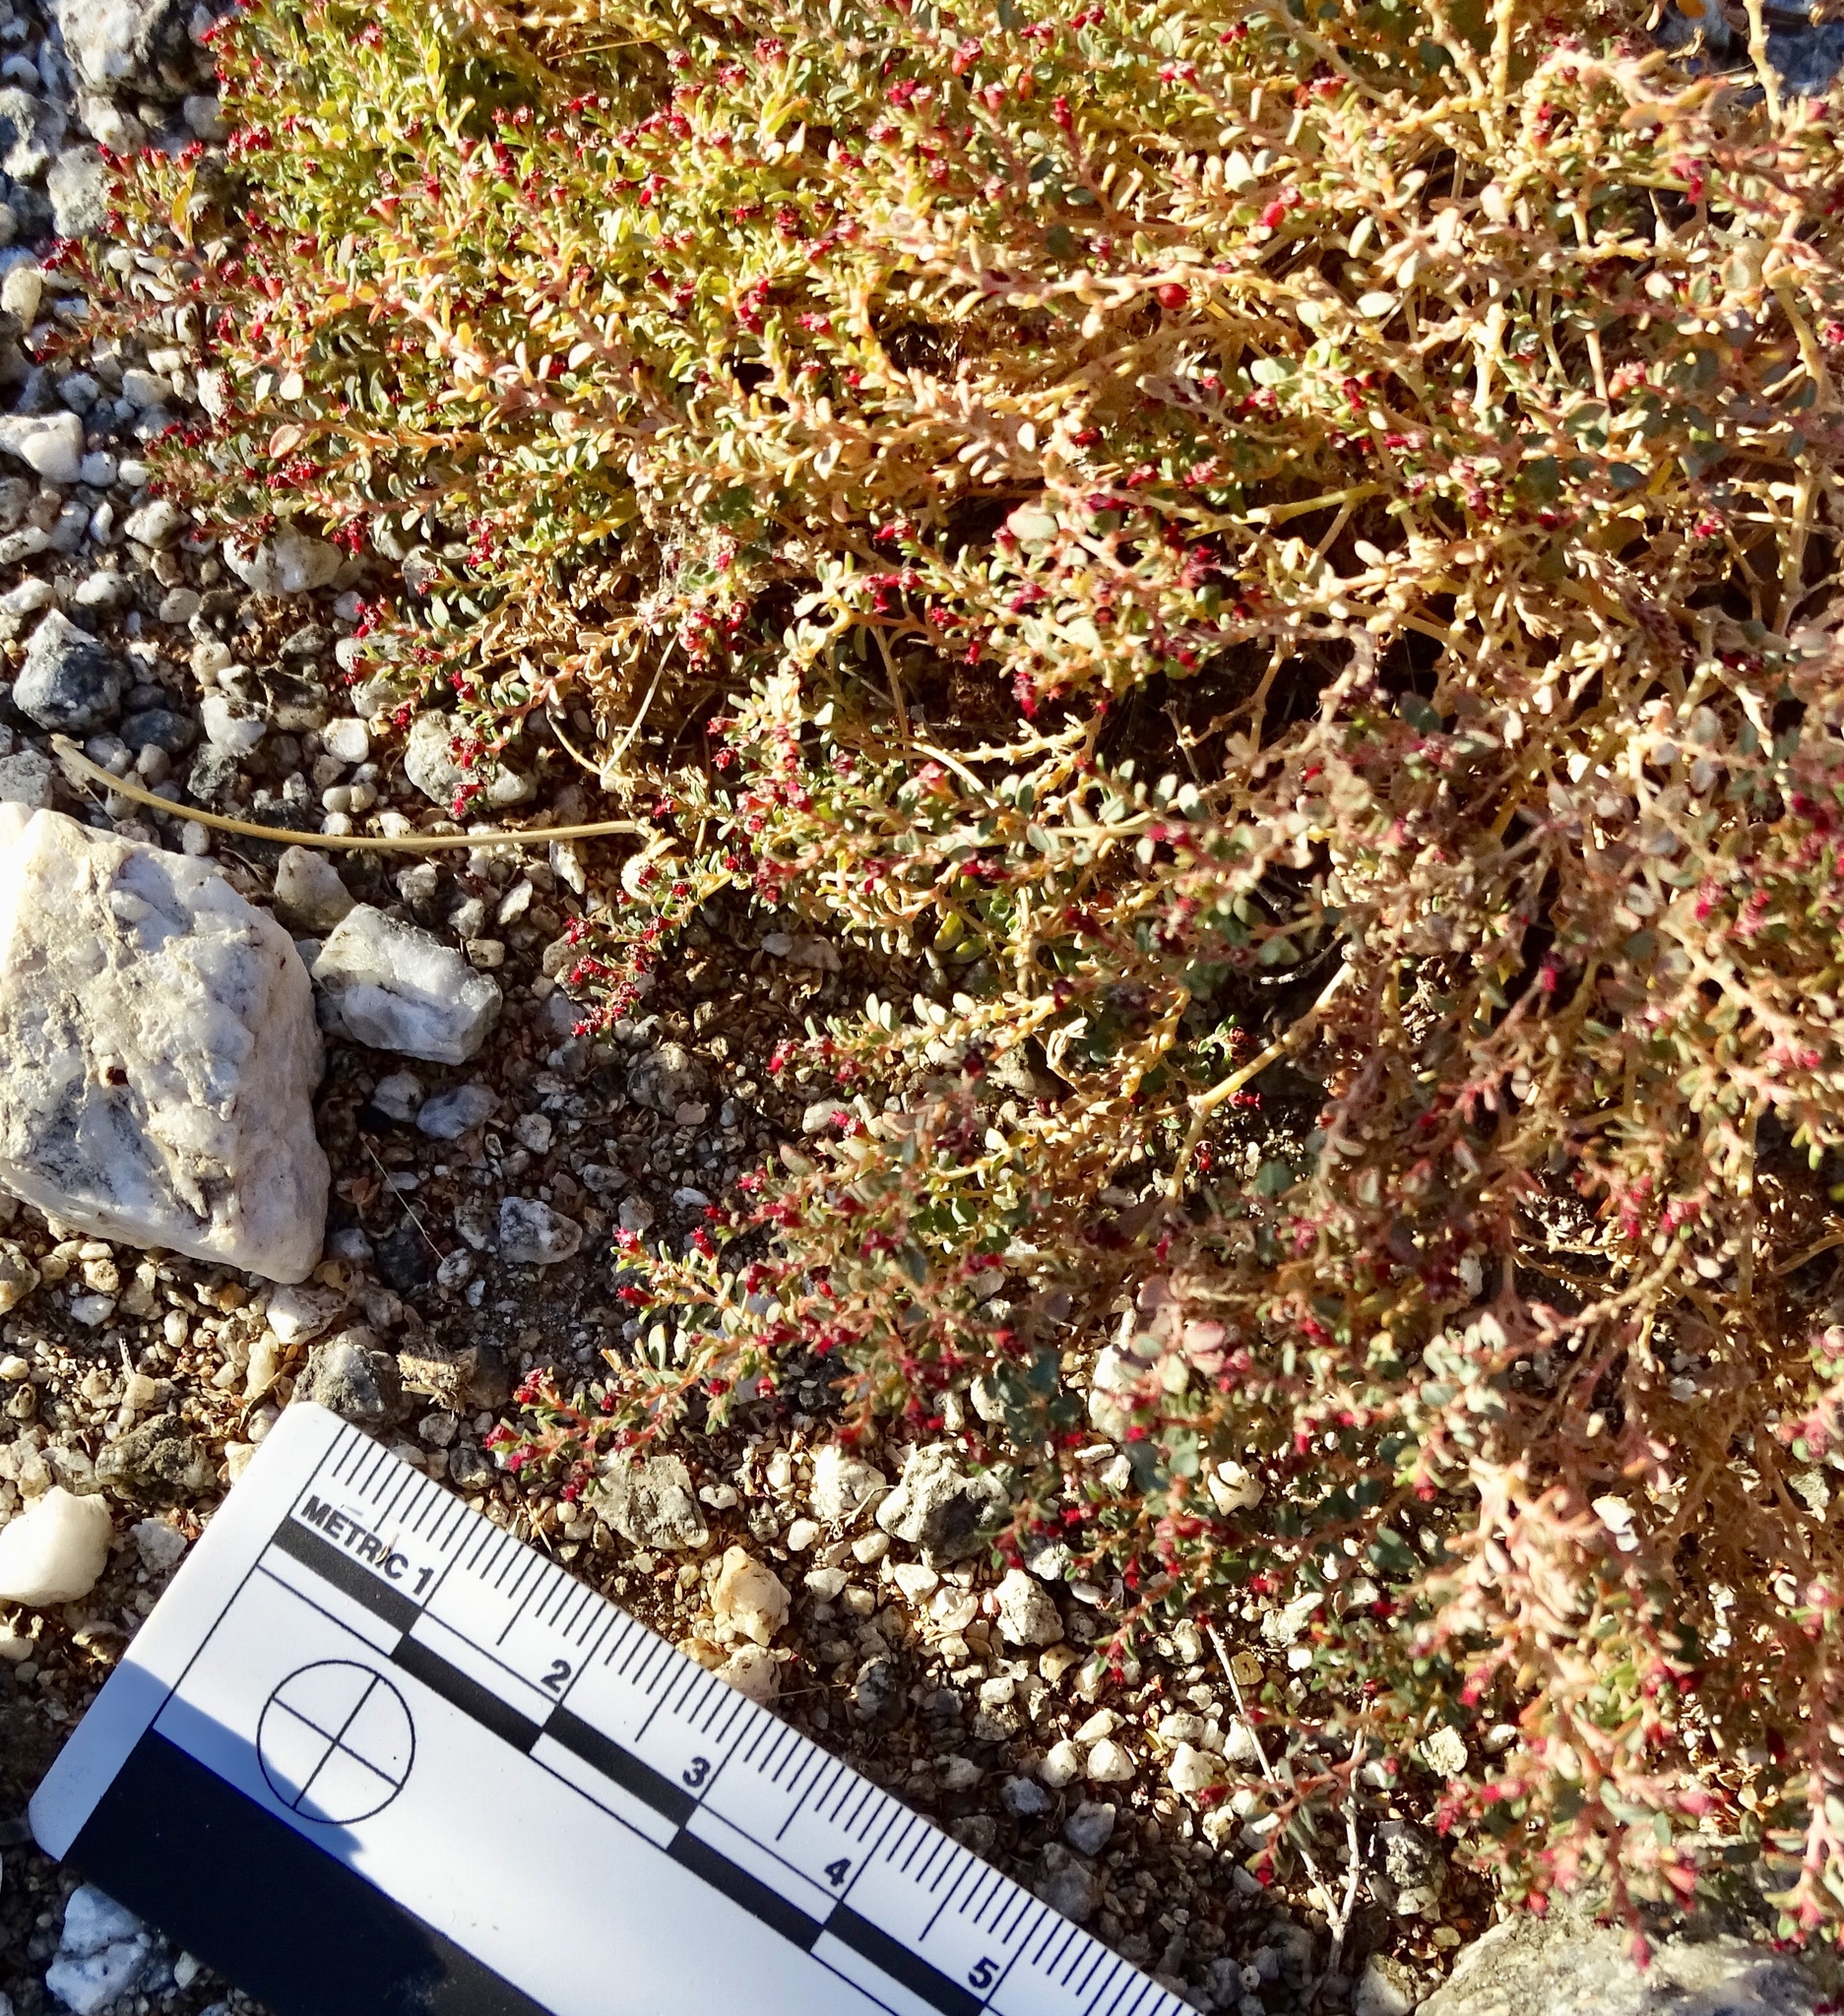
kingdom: Plantae
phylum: Tracheophyta
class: Magnoliopsida
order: Malpighiales
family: Euphorbiaceae
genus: Euphorbia
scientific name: Euphorbia polycarpa
